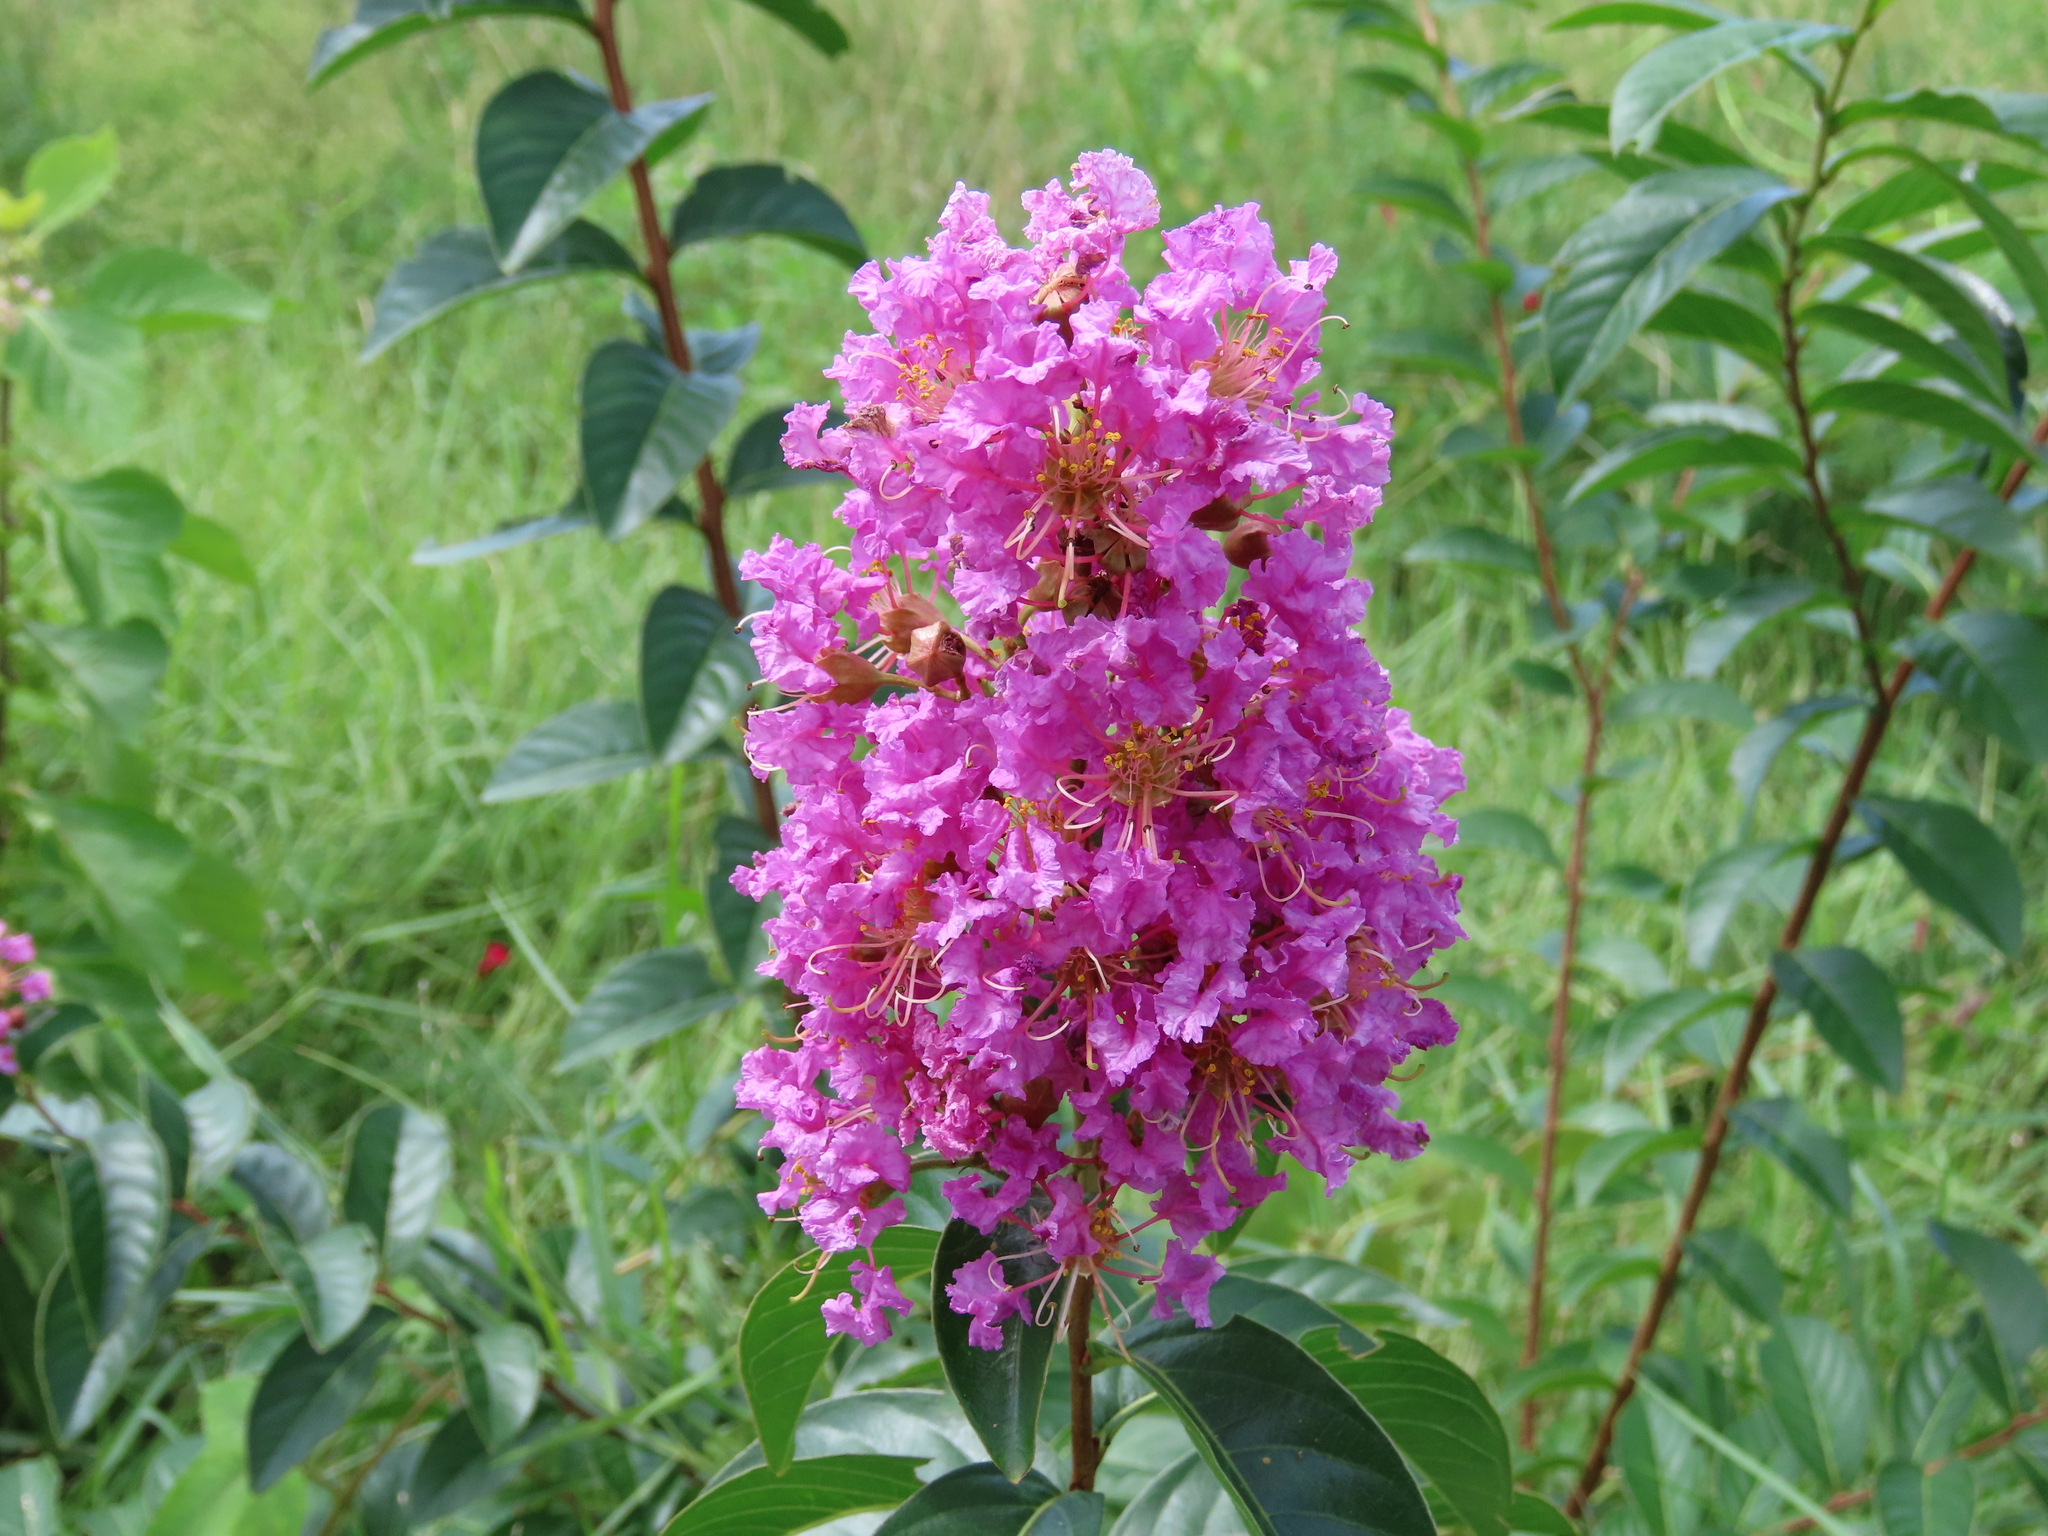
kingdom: Plantae
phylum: Tracheophyta
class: Magnoliopsida
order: Myrtales
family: Lythraceae
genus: Lagerstroemia
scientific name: Lagerstroemia indica
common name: Crape-myrtle
